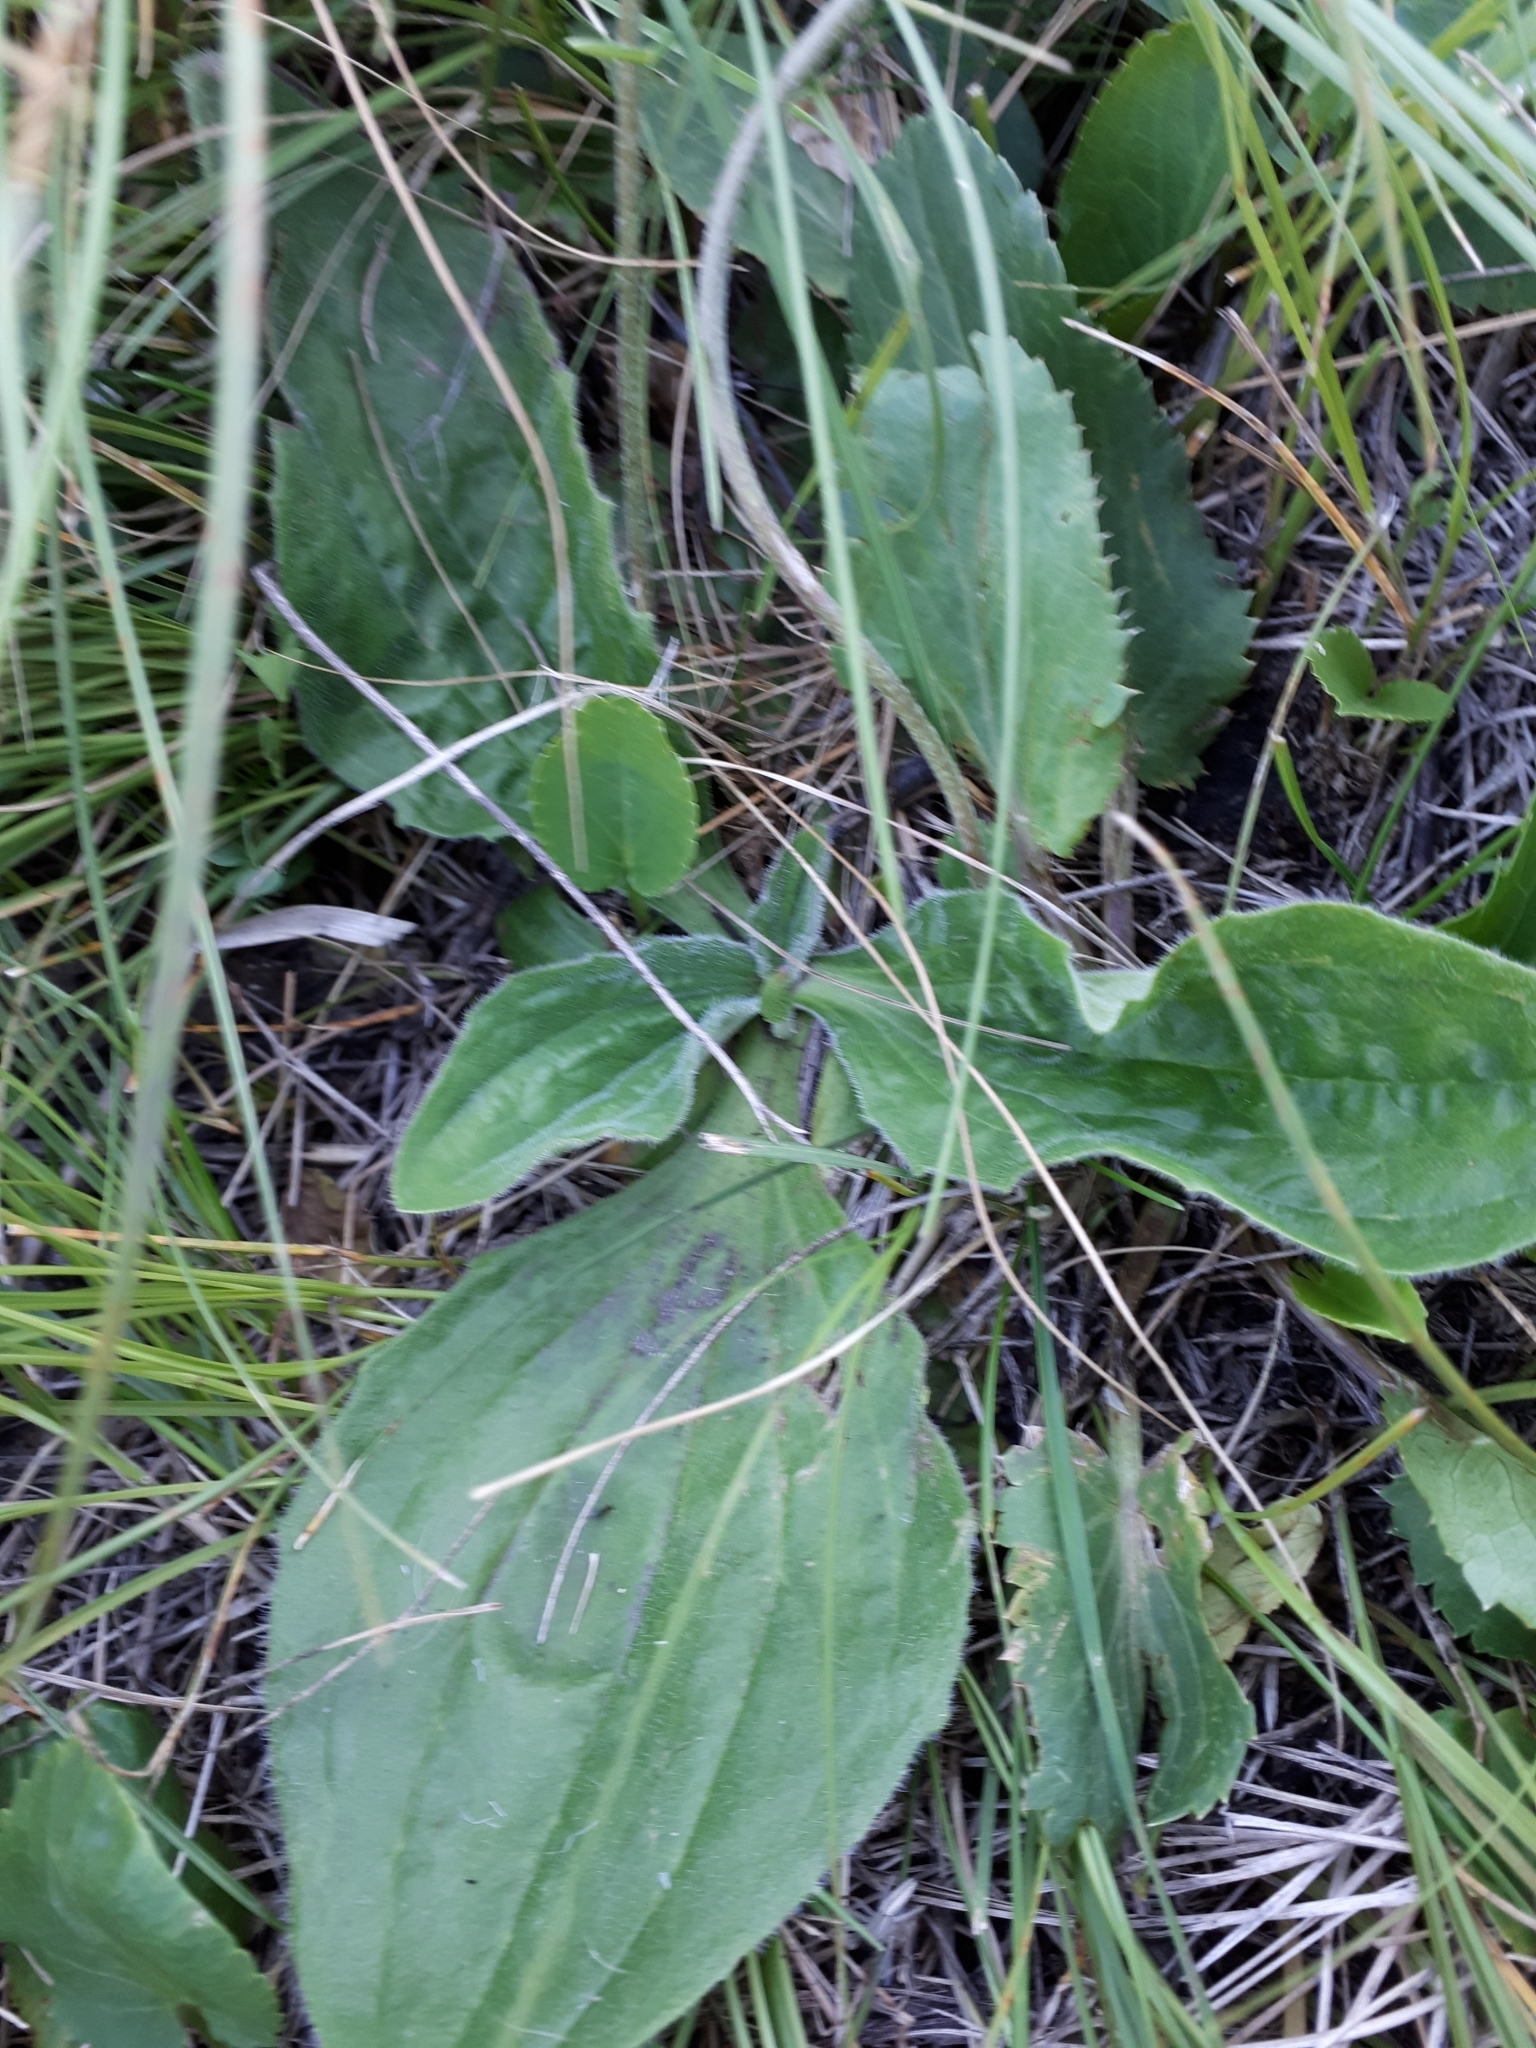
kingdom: Plantae
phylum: Tracheophyta
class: Magnoliopsida
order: Lamiales
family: Plantaginaceae
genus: Plantago
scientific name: Plantago media
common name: Hoary plantain
